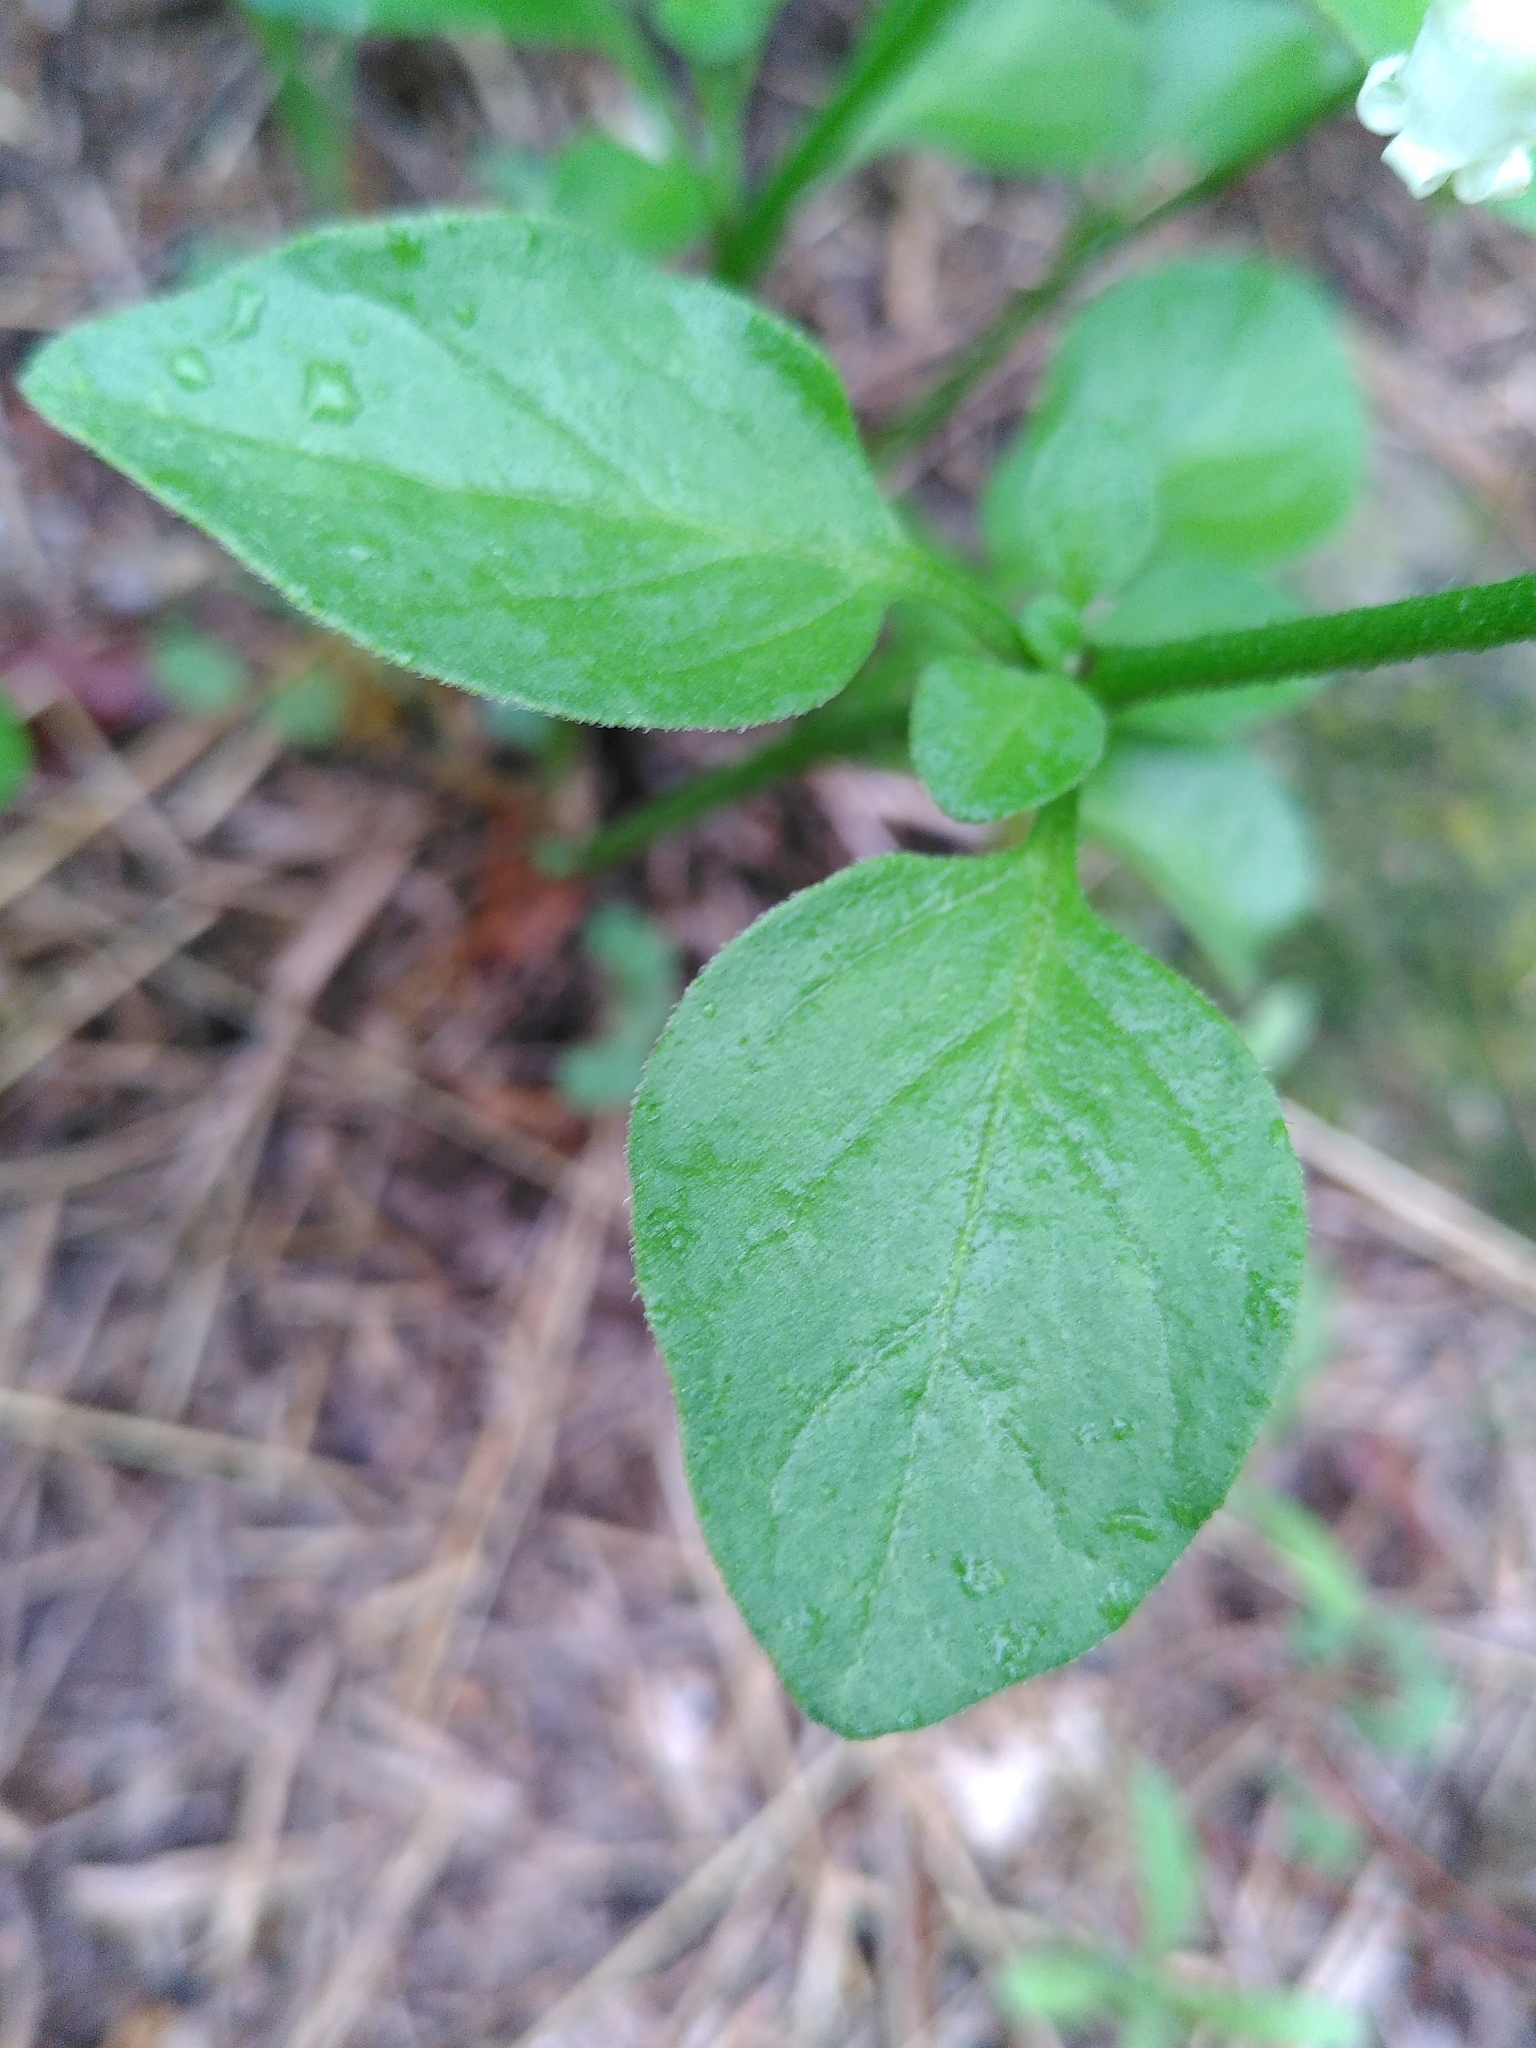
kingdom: Plantae
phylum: Tracheophyta
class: Magnoliopsida
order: Solanales
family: Solanaceae
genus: Salpichroa
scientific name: Salpichroa origanifolia
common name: Lily-of-the-valley-vine
